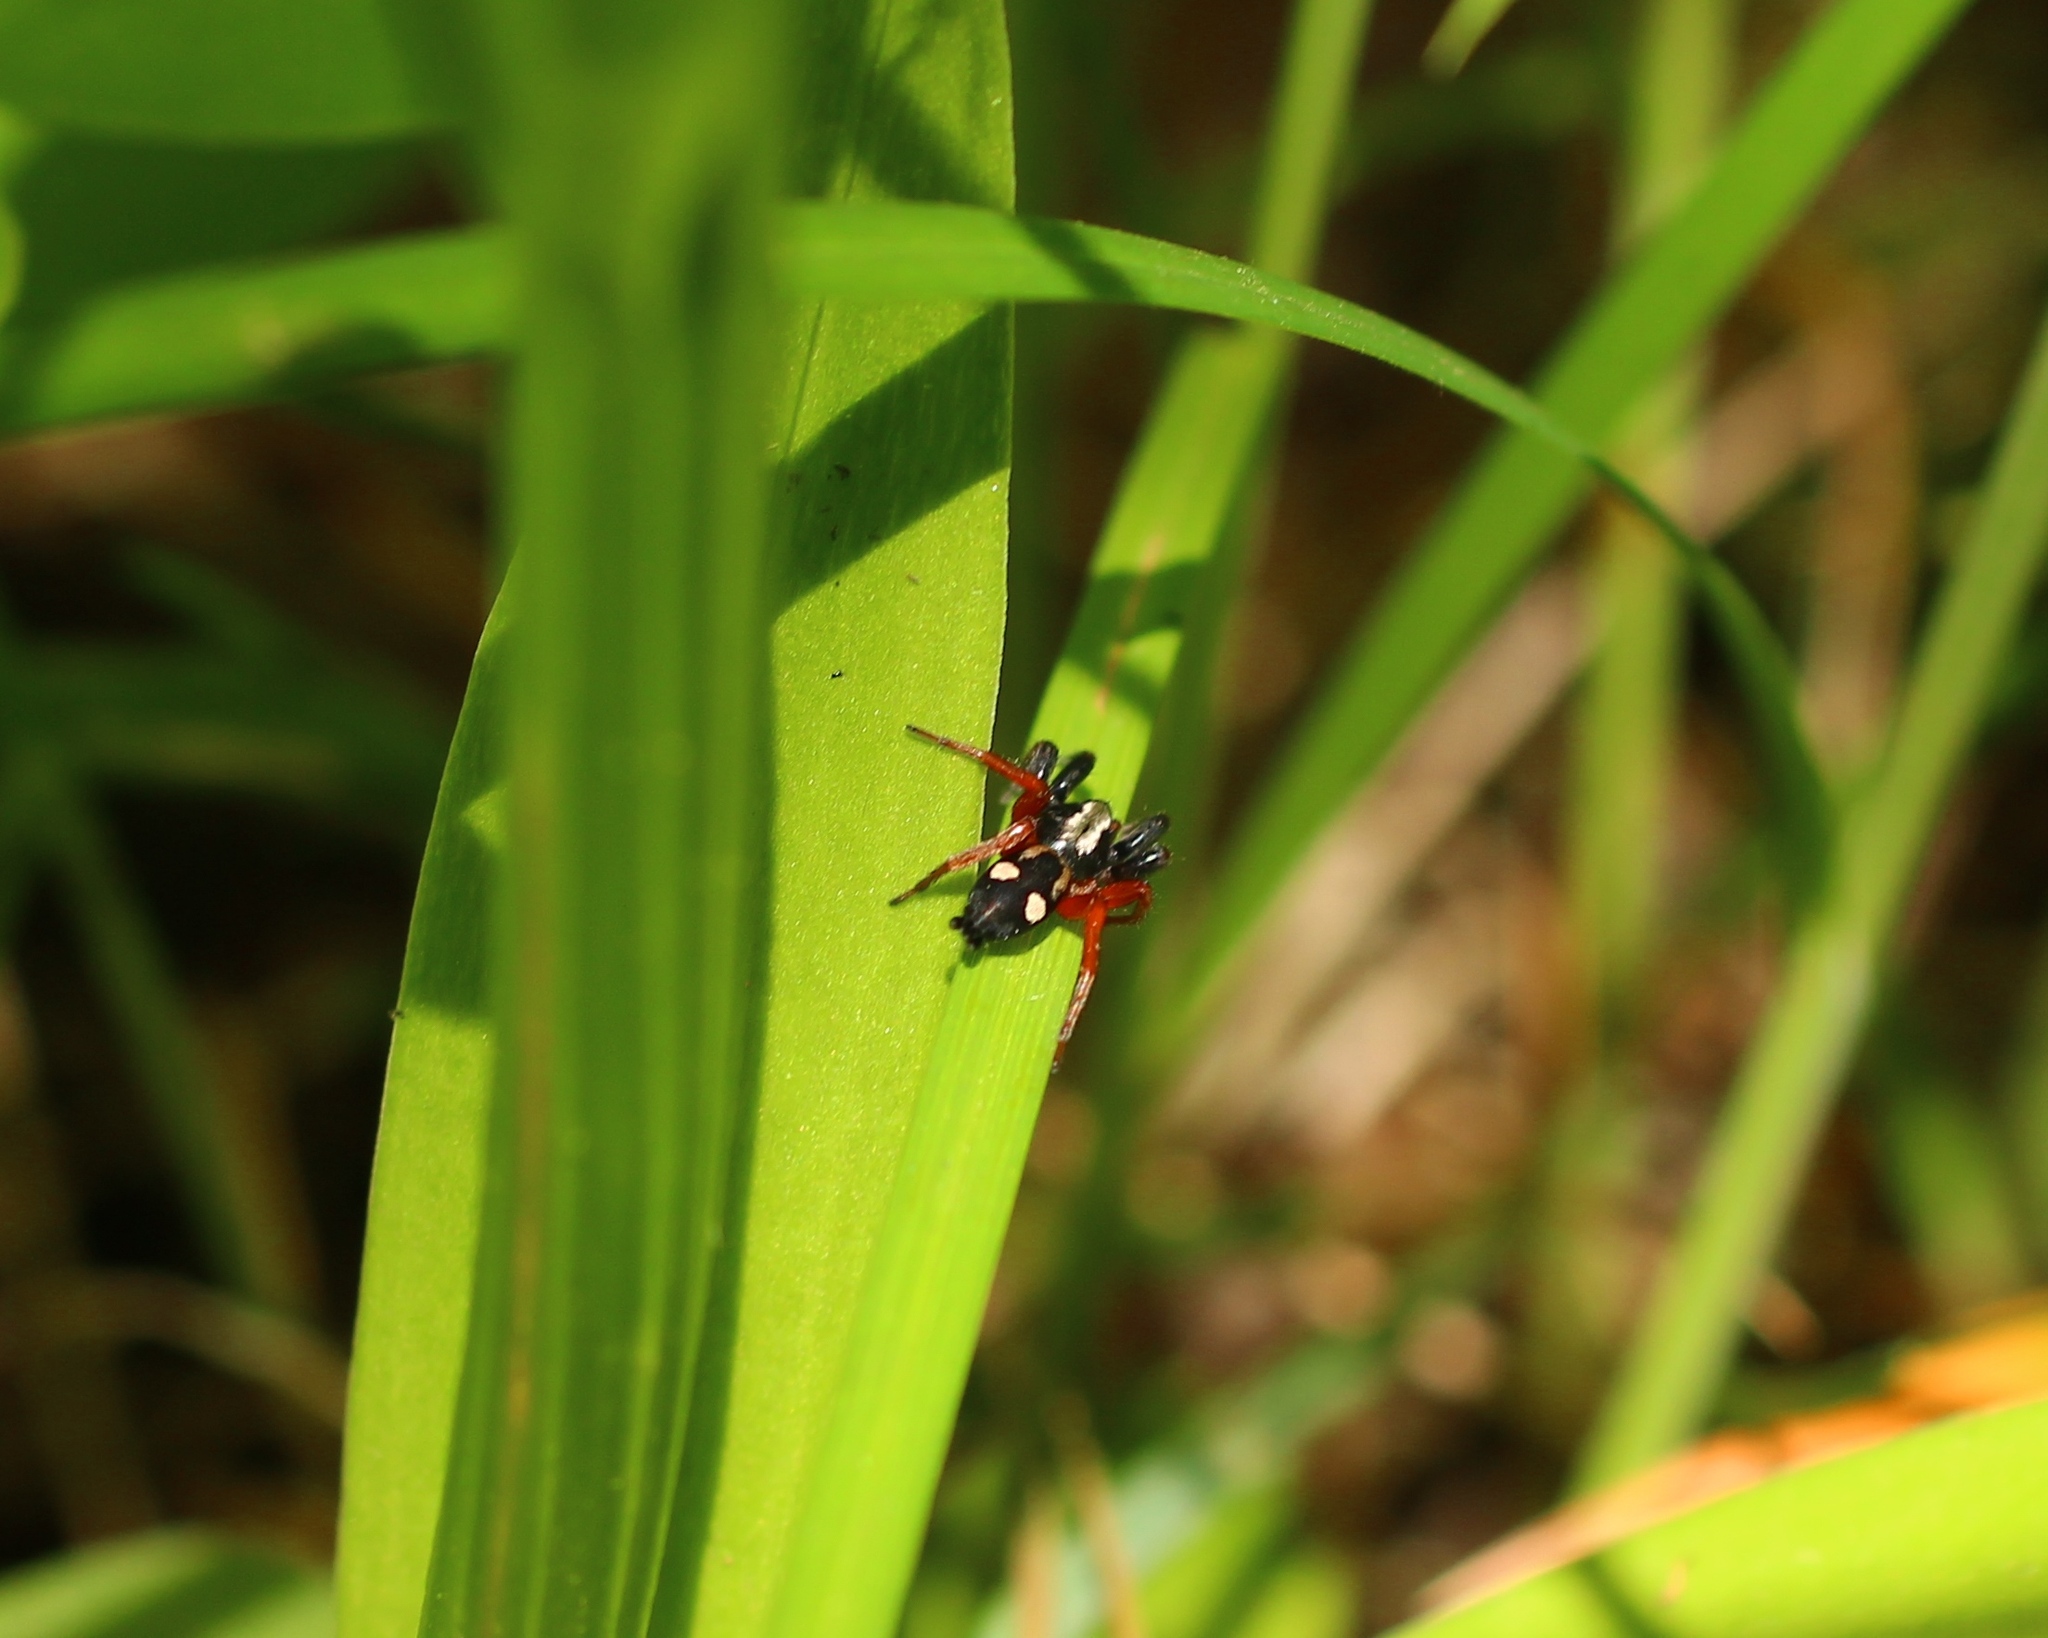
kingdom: Animalia
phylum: Arthropoda
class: Arachnida
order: Araneae
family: Gnaphosidae
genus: Kishidaia
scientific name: Kishidaia conspicua
